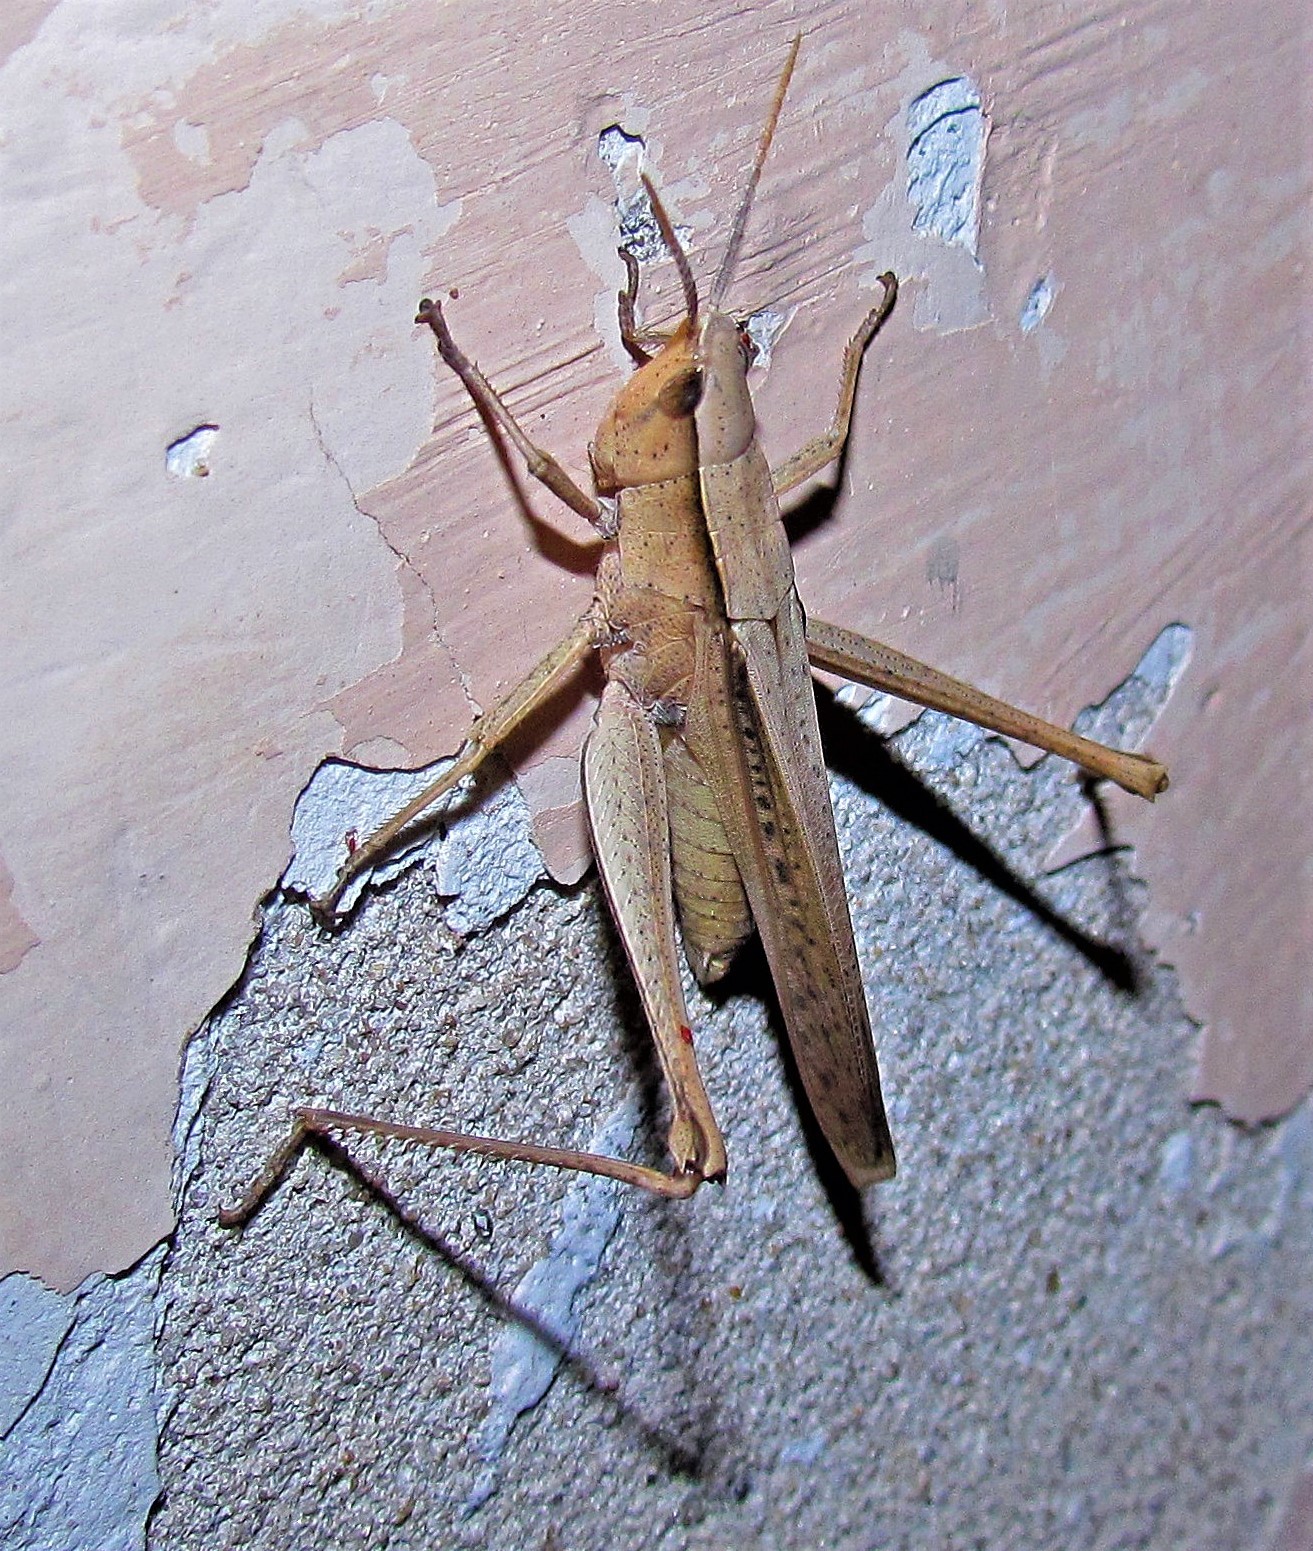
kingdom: Animalia
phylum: Arthropoda
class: Insecta
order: Orthoptera
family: Acrididae
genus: Metaleptea
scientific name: Metaleptea adspersa
